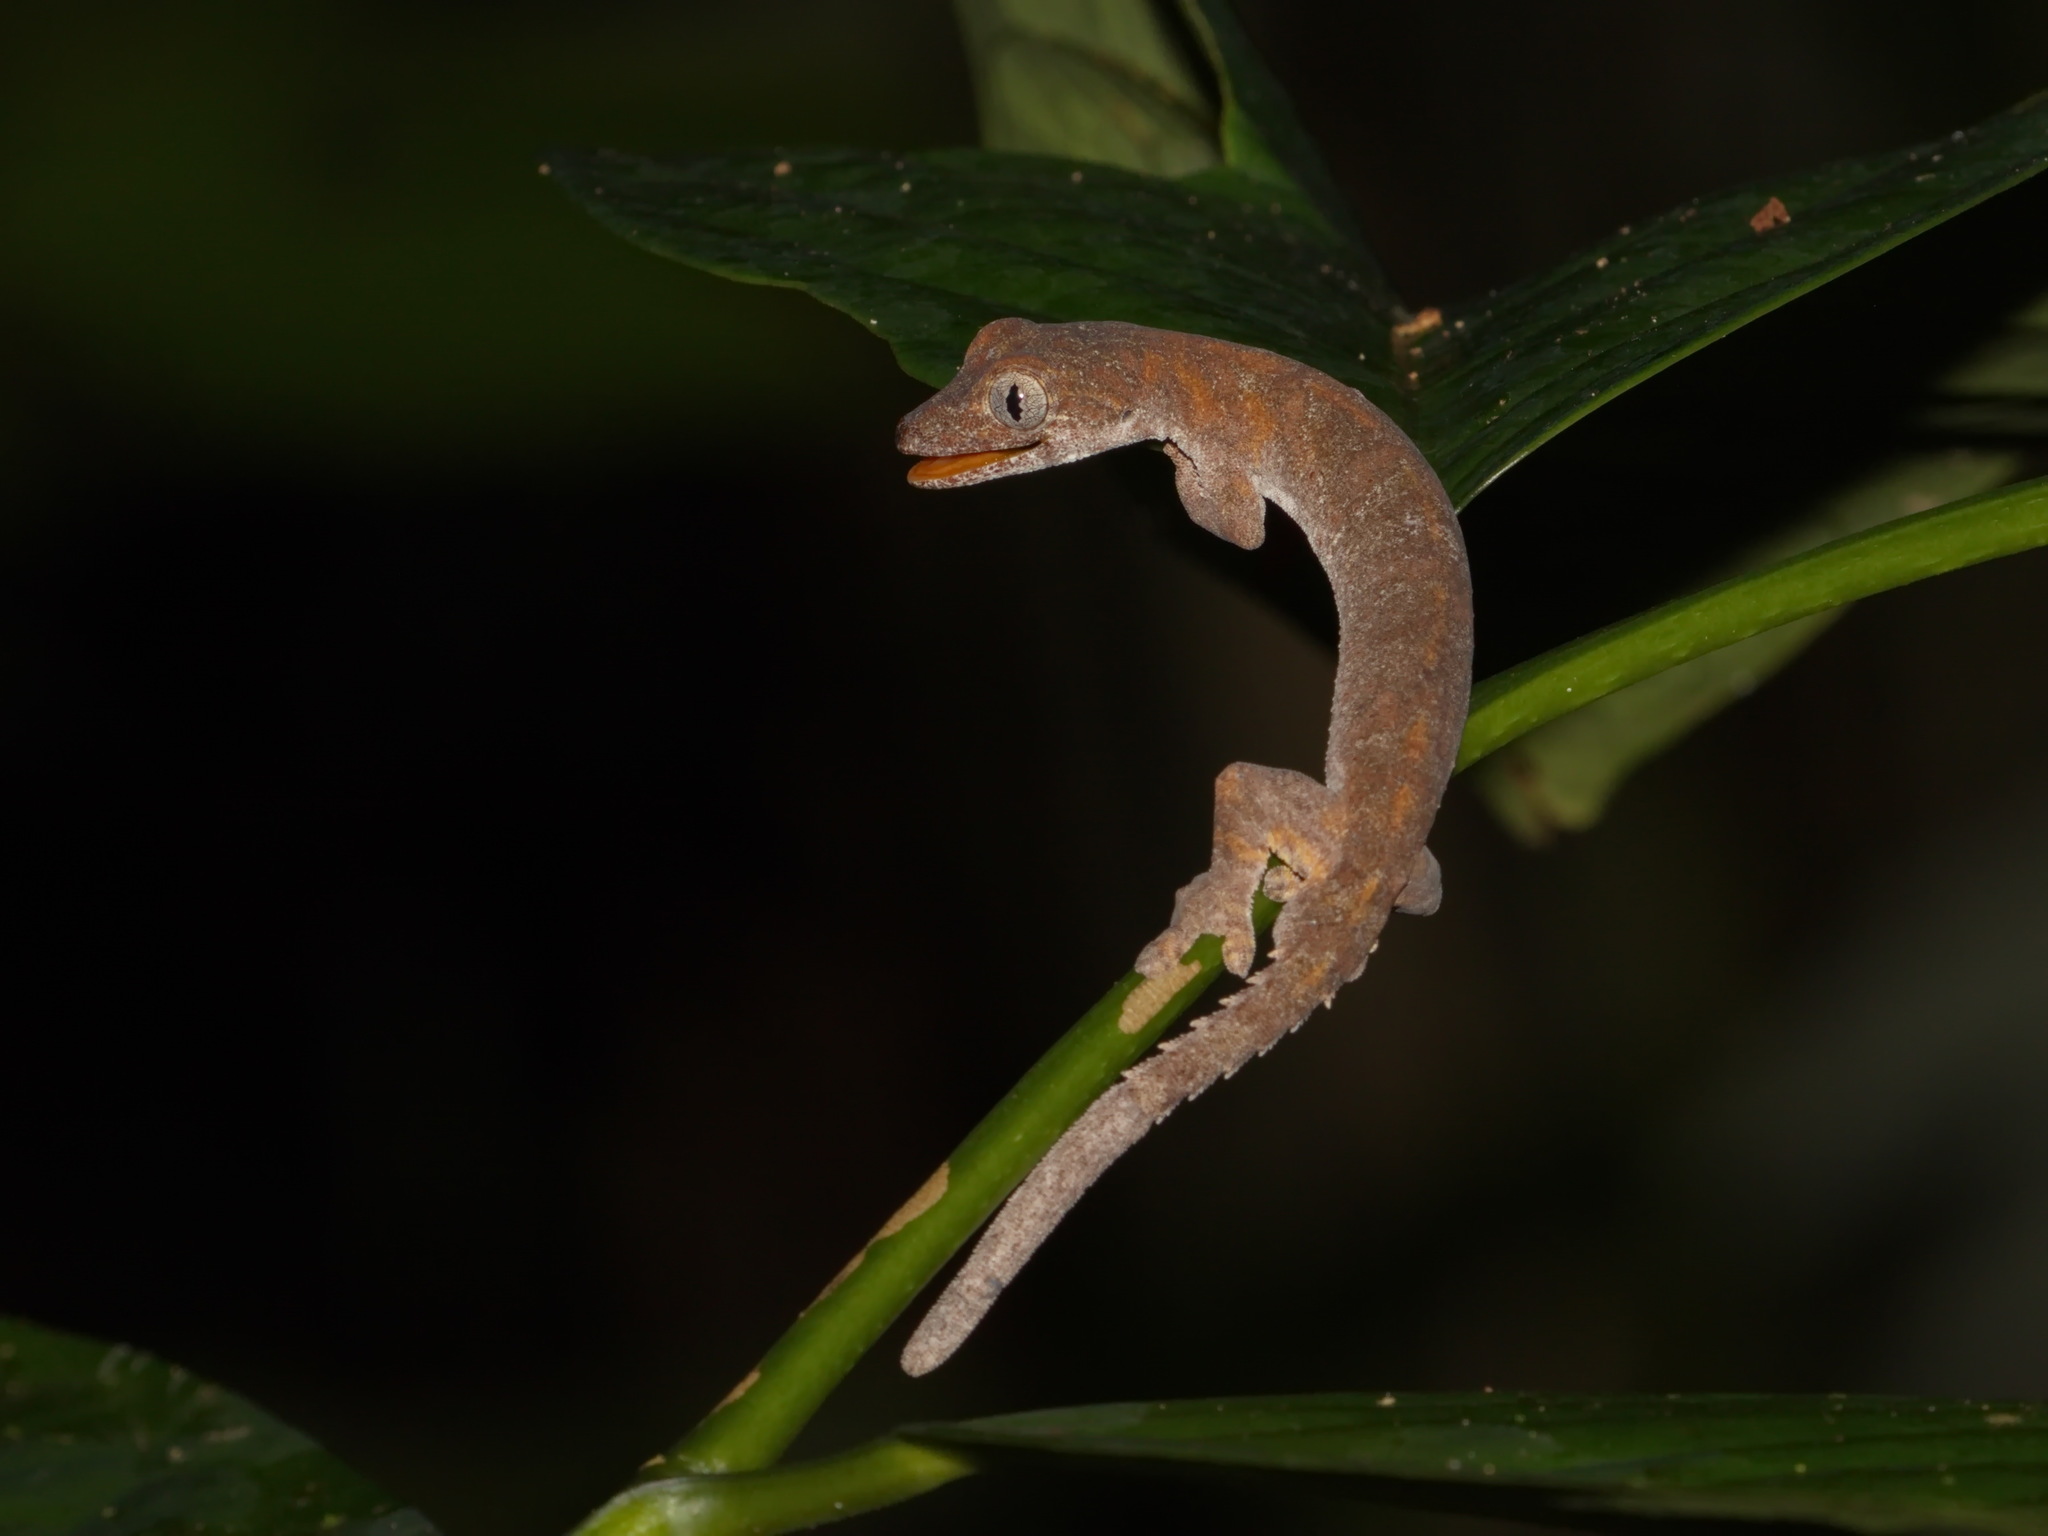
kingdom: Animalia
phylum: Chordata
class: Squamata
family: Gekkonidae
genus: Gekko
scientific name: Gekko browni
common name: Brown’s fringe gecko
